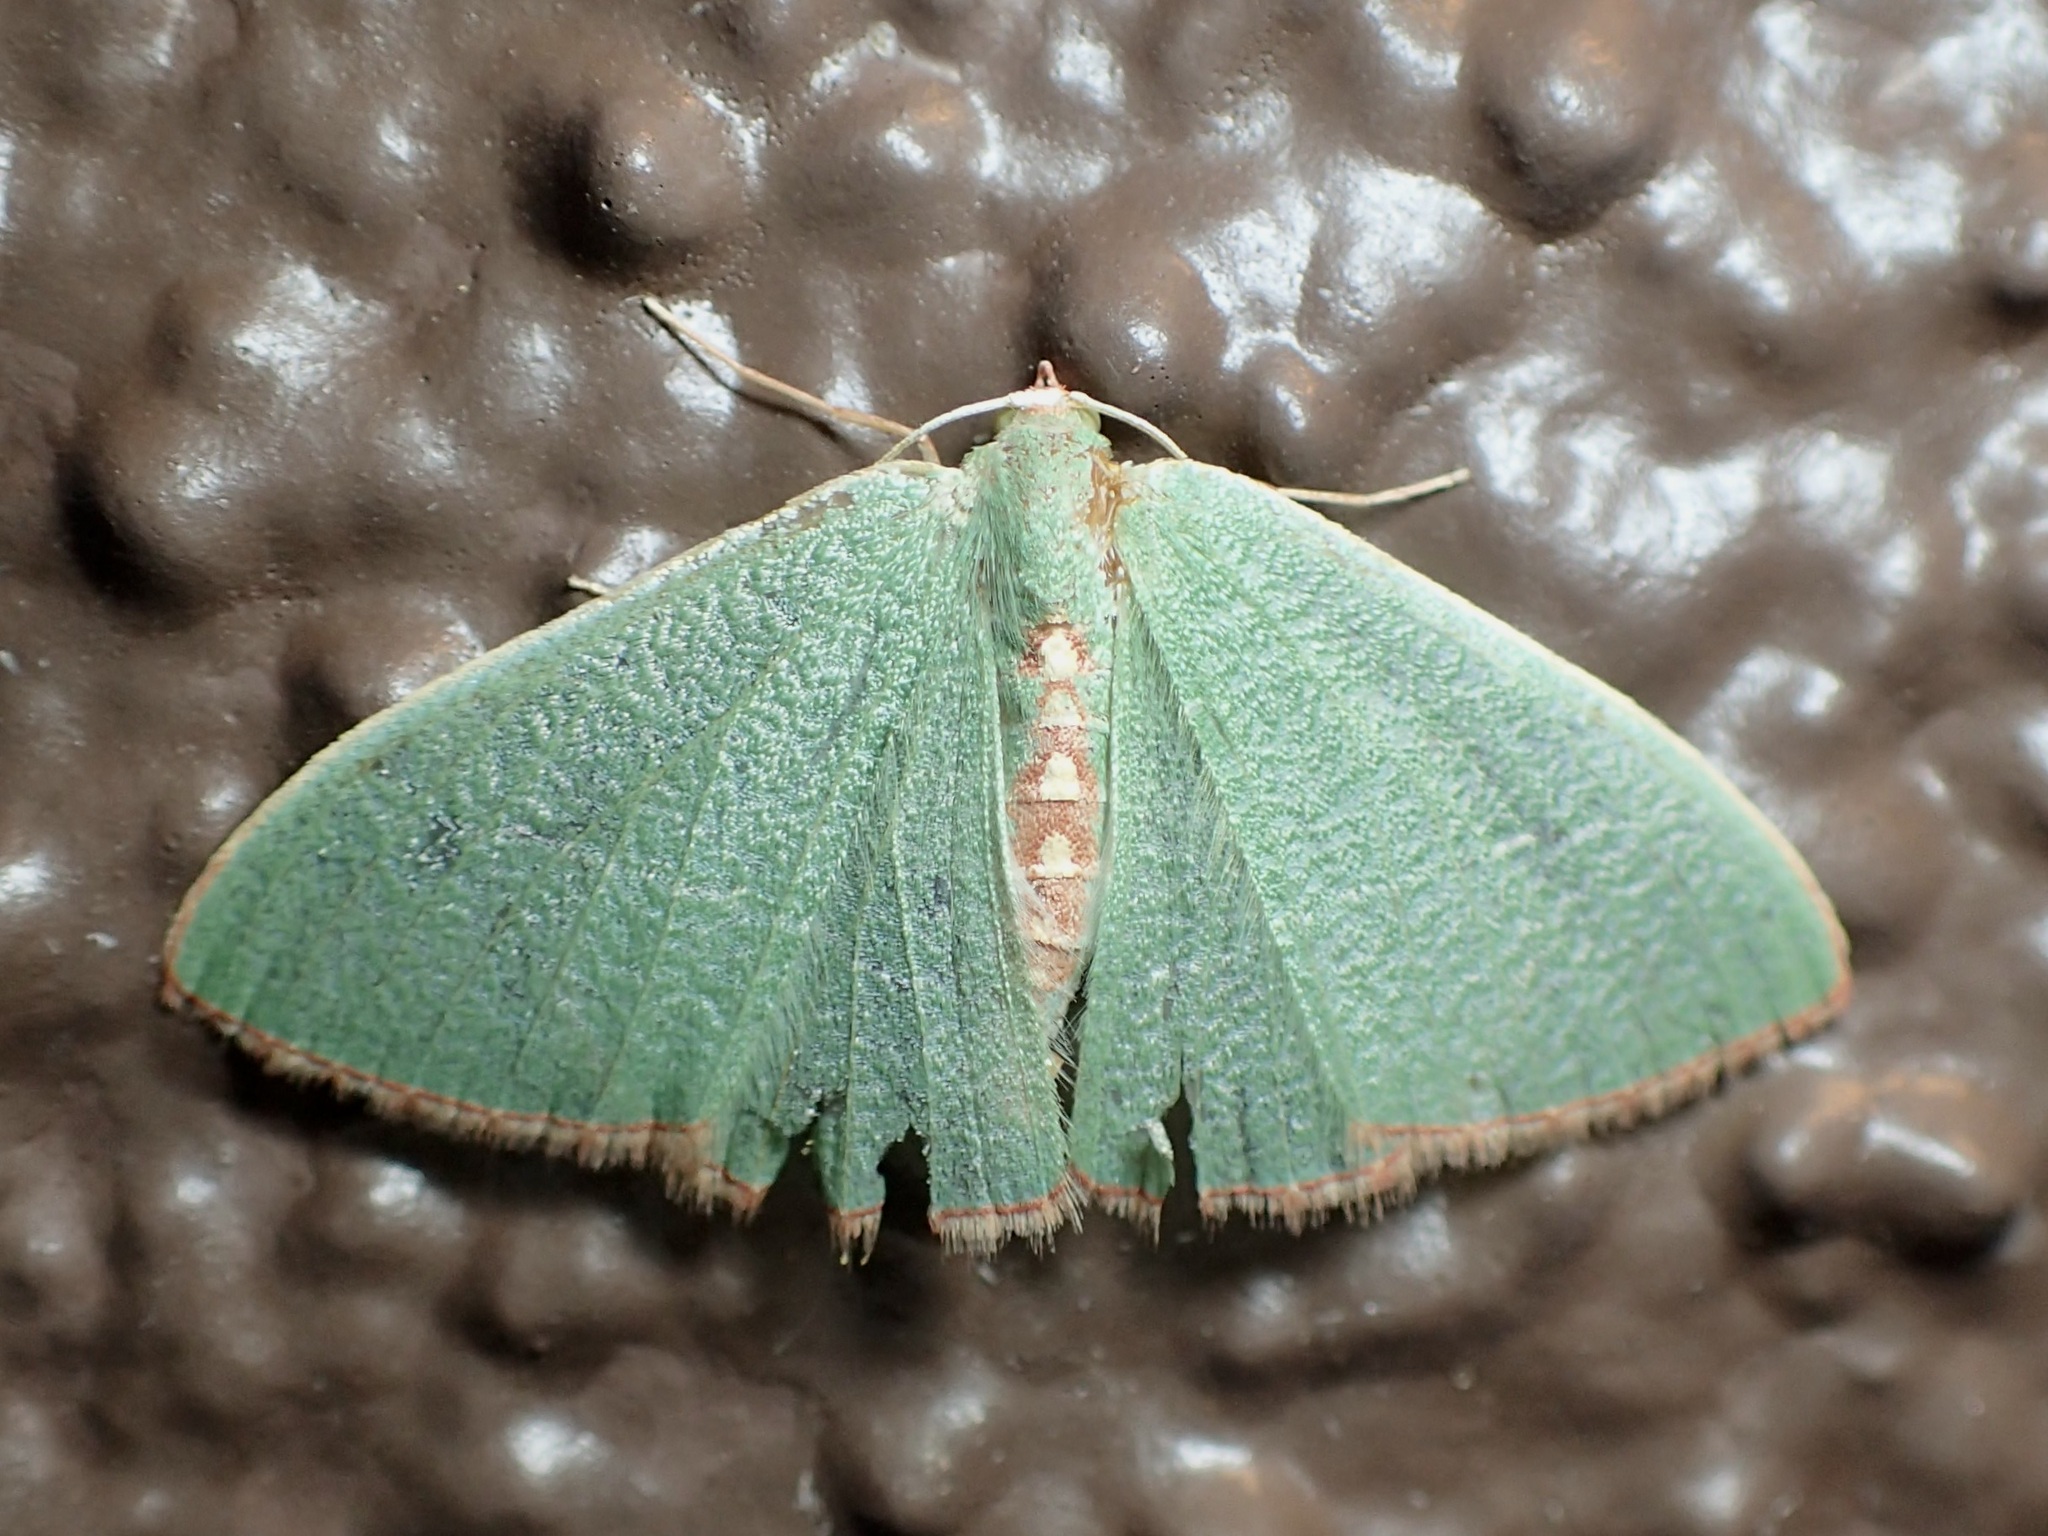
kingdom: Animalia
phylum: Arthropoda
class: Insecta
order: Lepidoptera
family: Geometridae
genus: Nemoria
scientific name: Nemoria festaria
